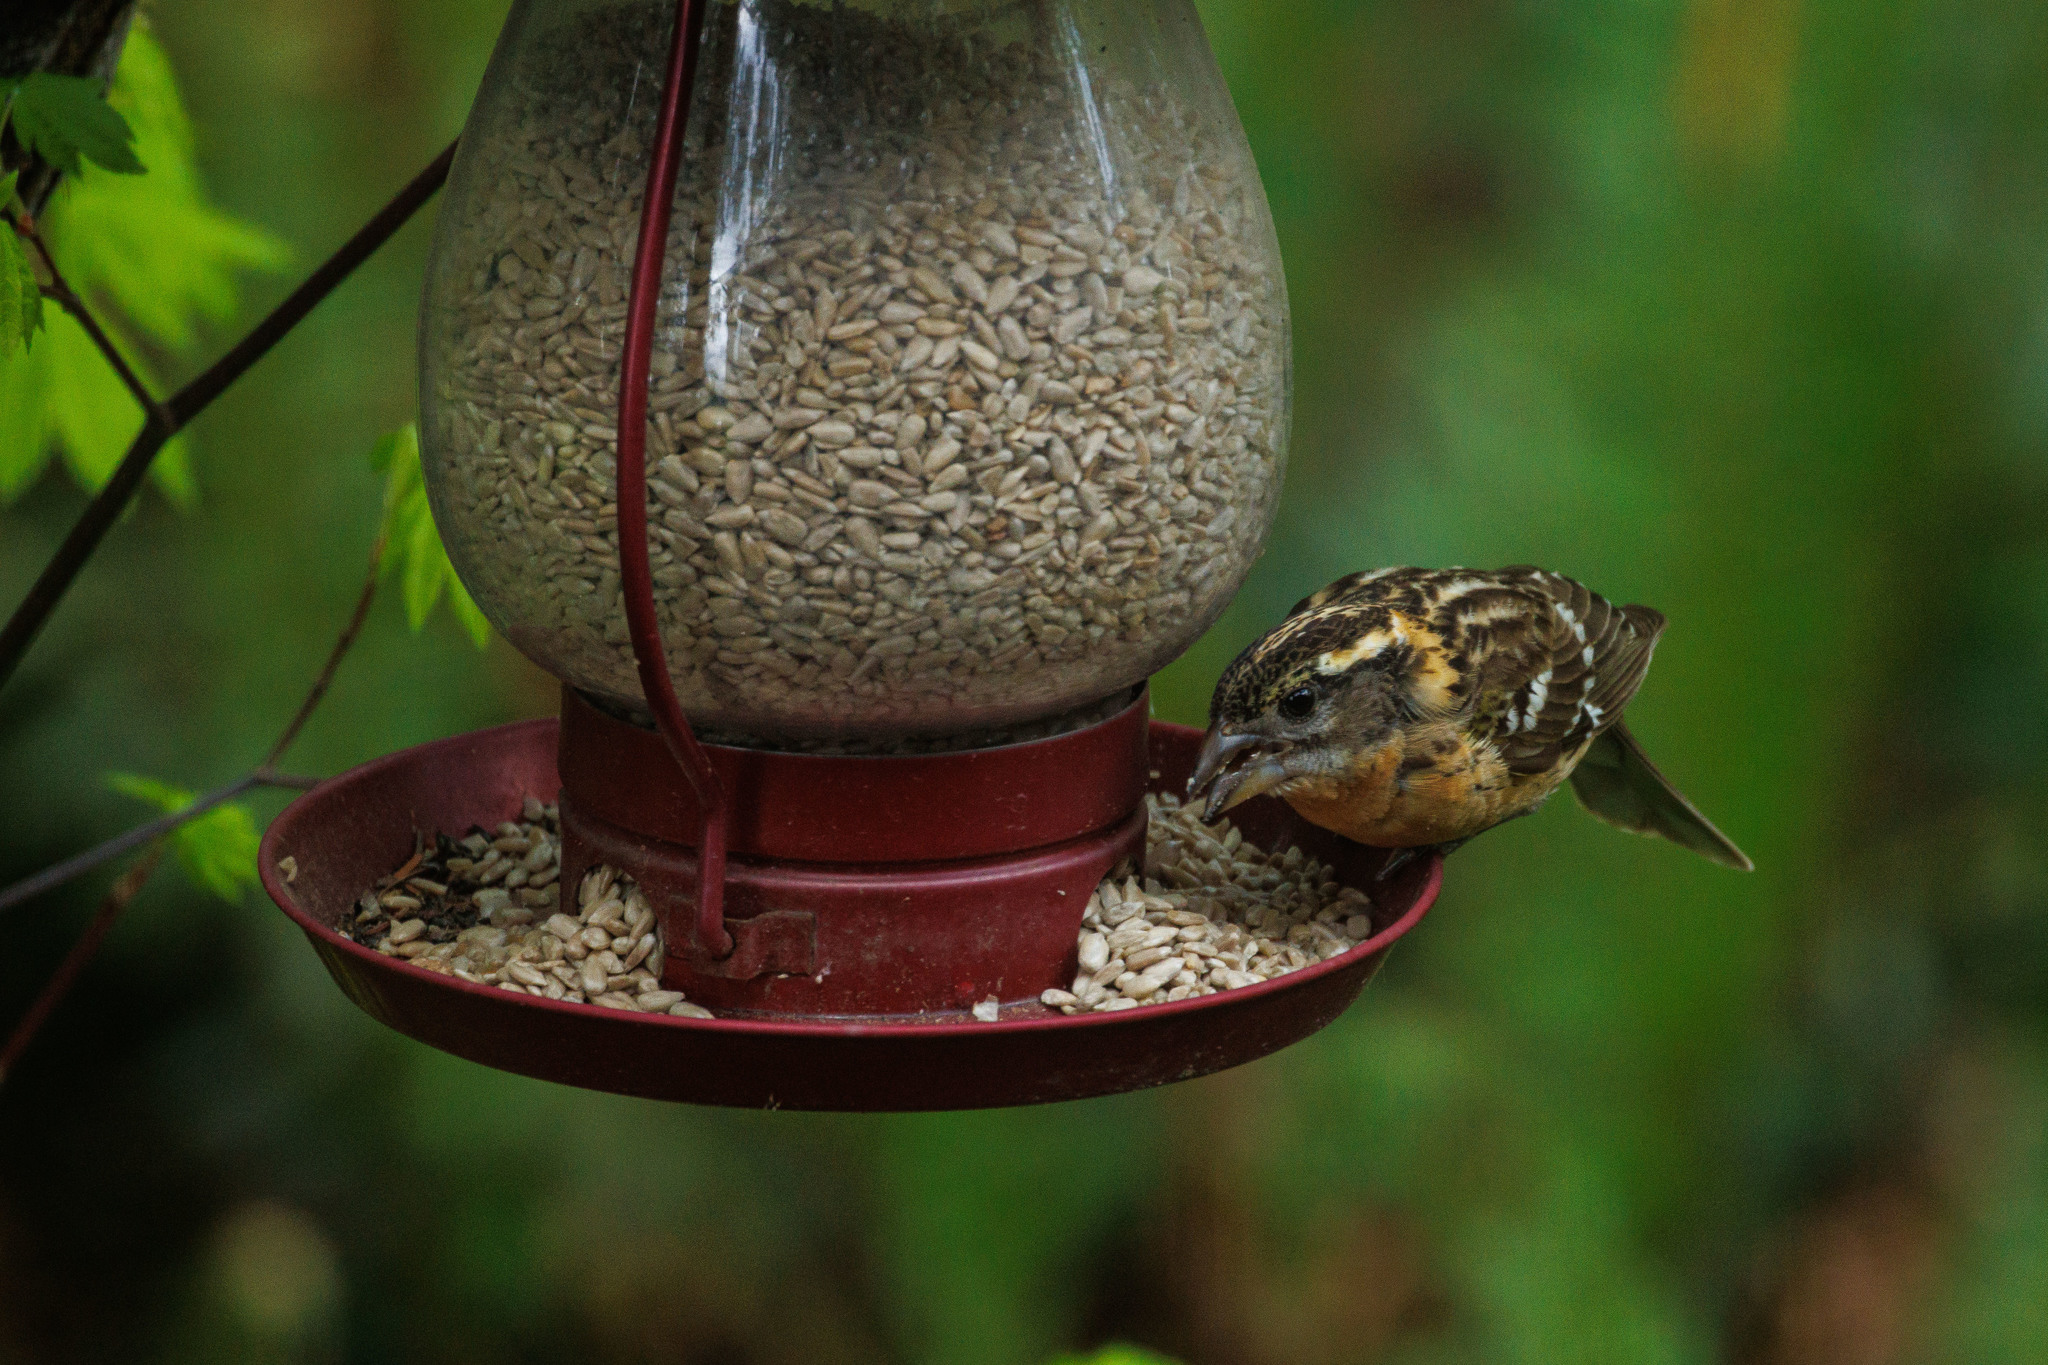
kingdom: Animalia
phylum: Chordata
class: Aves
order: Passeriformes
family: Cardinalidae
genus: Pheucticus
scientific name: Pheucticus melanocephalus
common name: Black-headed grosbeak
